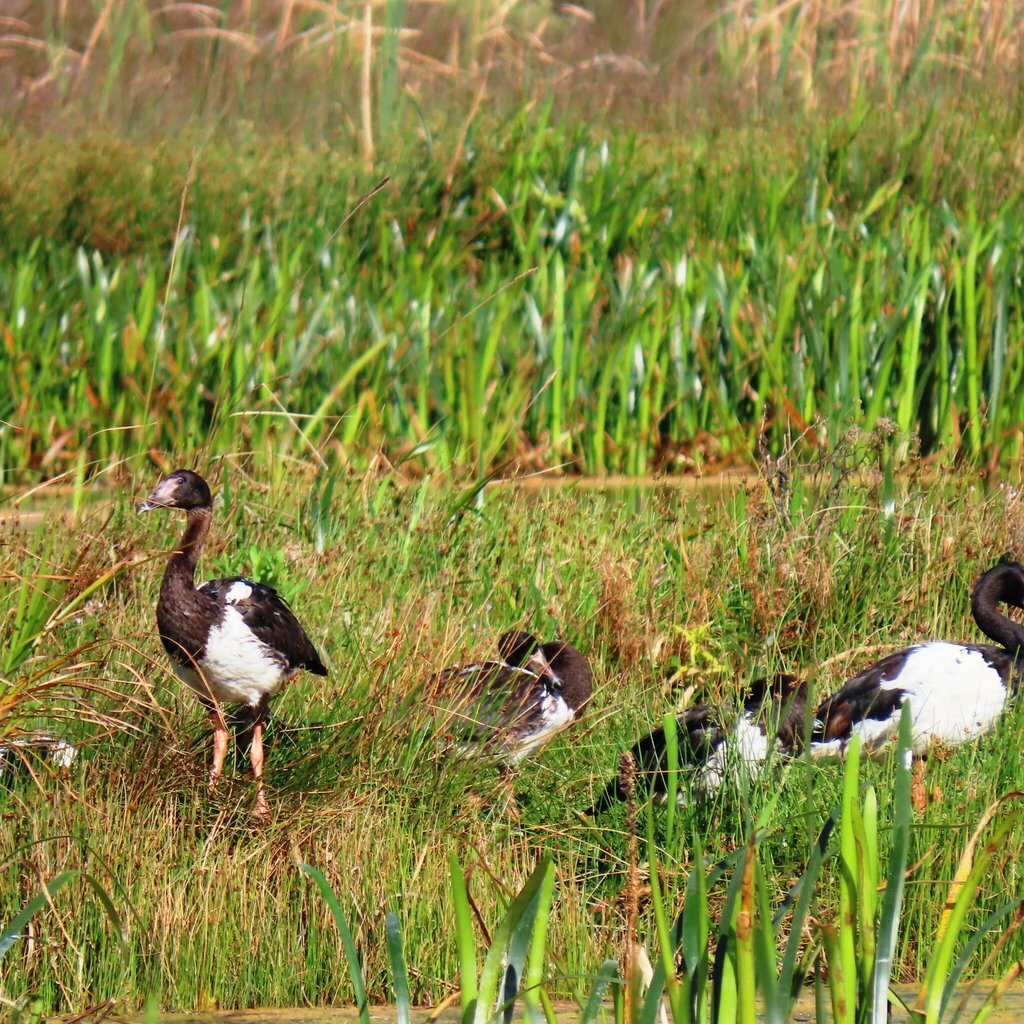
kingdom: Animalia
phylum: Chordata
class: Aves
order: Anseriformes
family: Anseranatidae
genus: Anseranas
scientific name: Anseranas semipalmata
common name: Magpie goose
